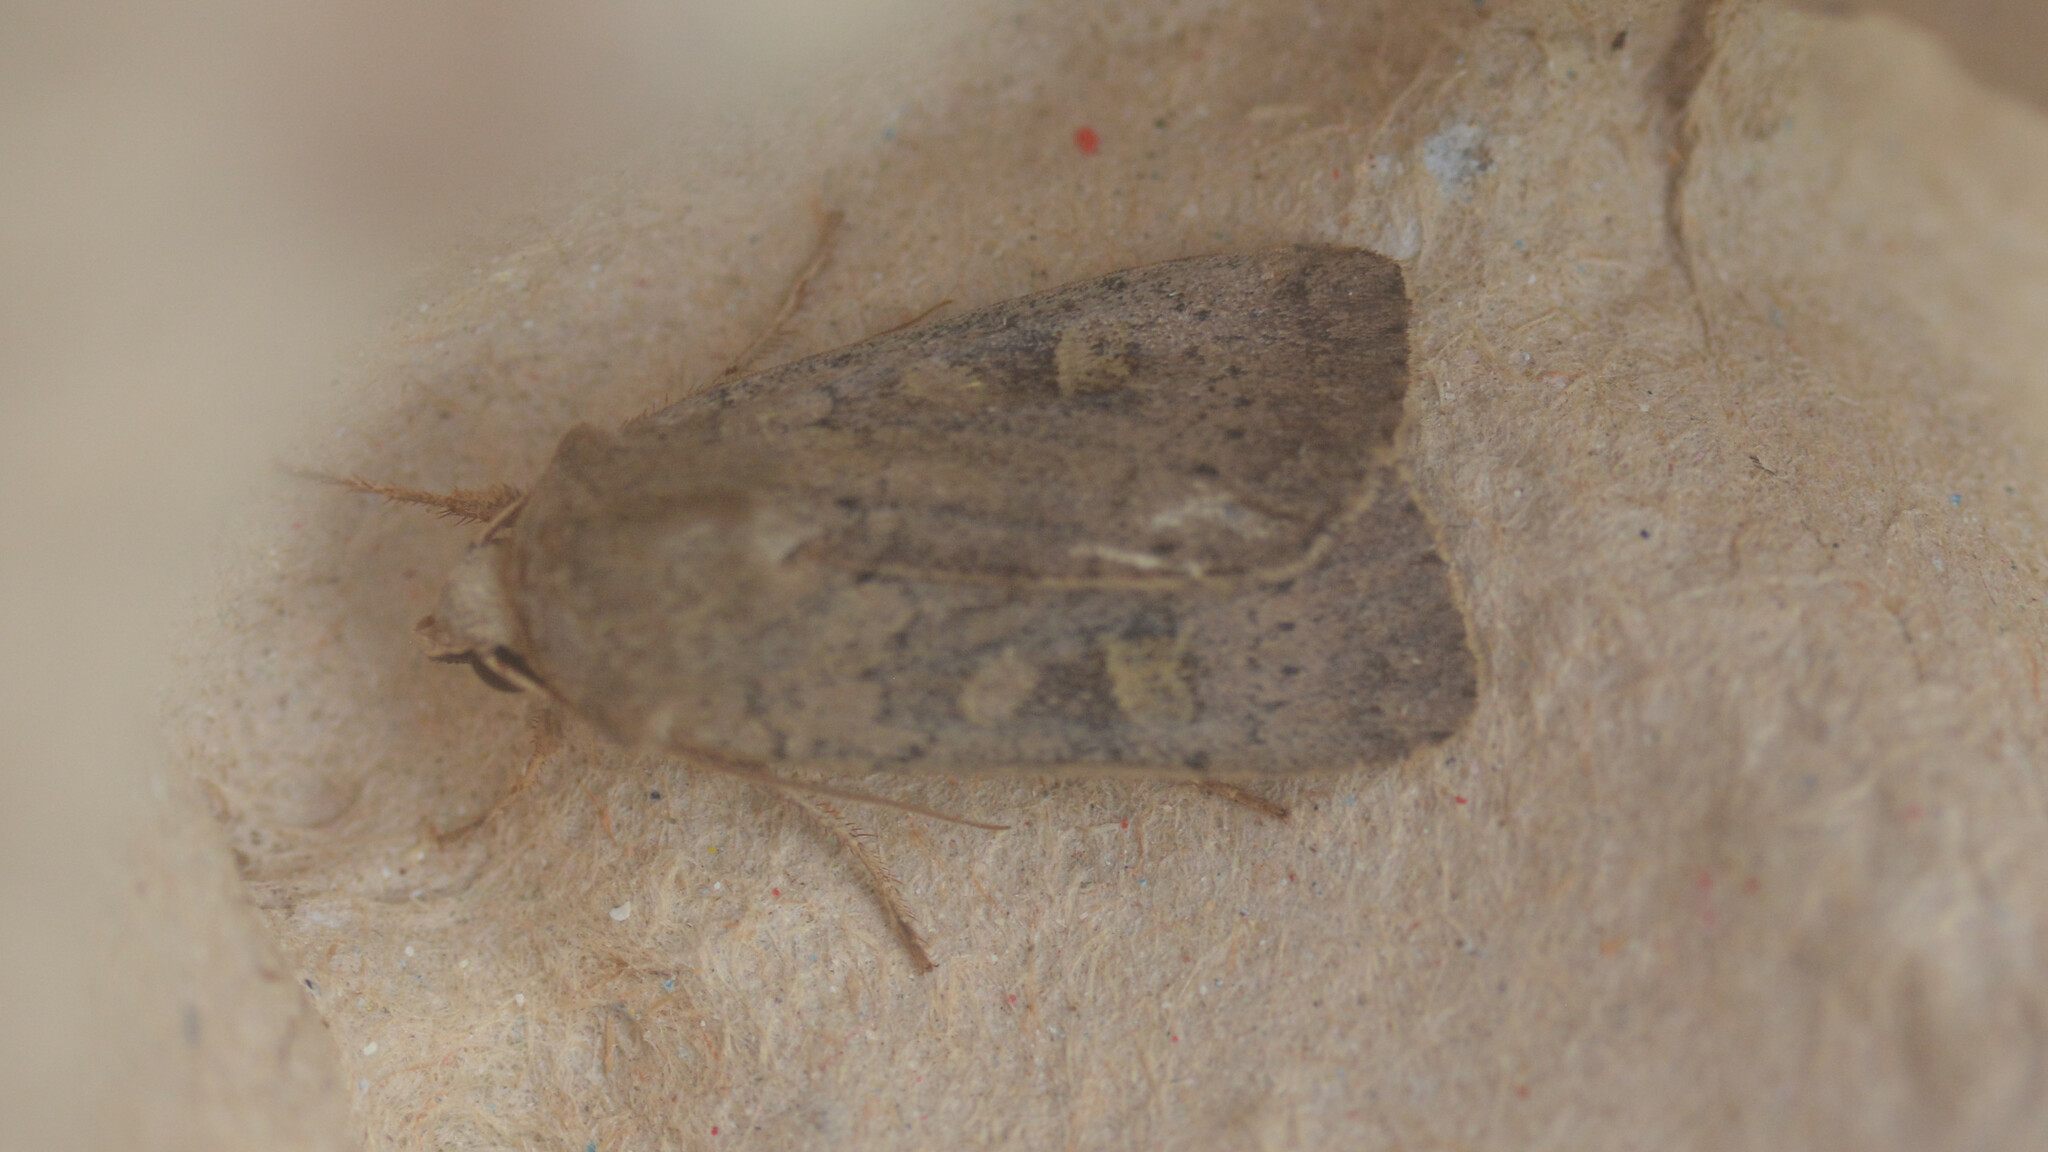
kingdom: Animalia
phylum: Arthropoda
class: Insecta
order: Lepidoptera
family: Noctuidae
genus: Xestia
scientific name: Xestia xanthographa
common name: Square-spot rustic
